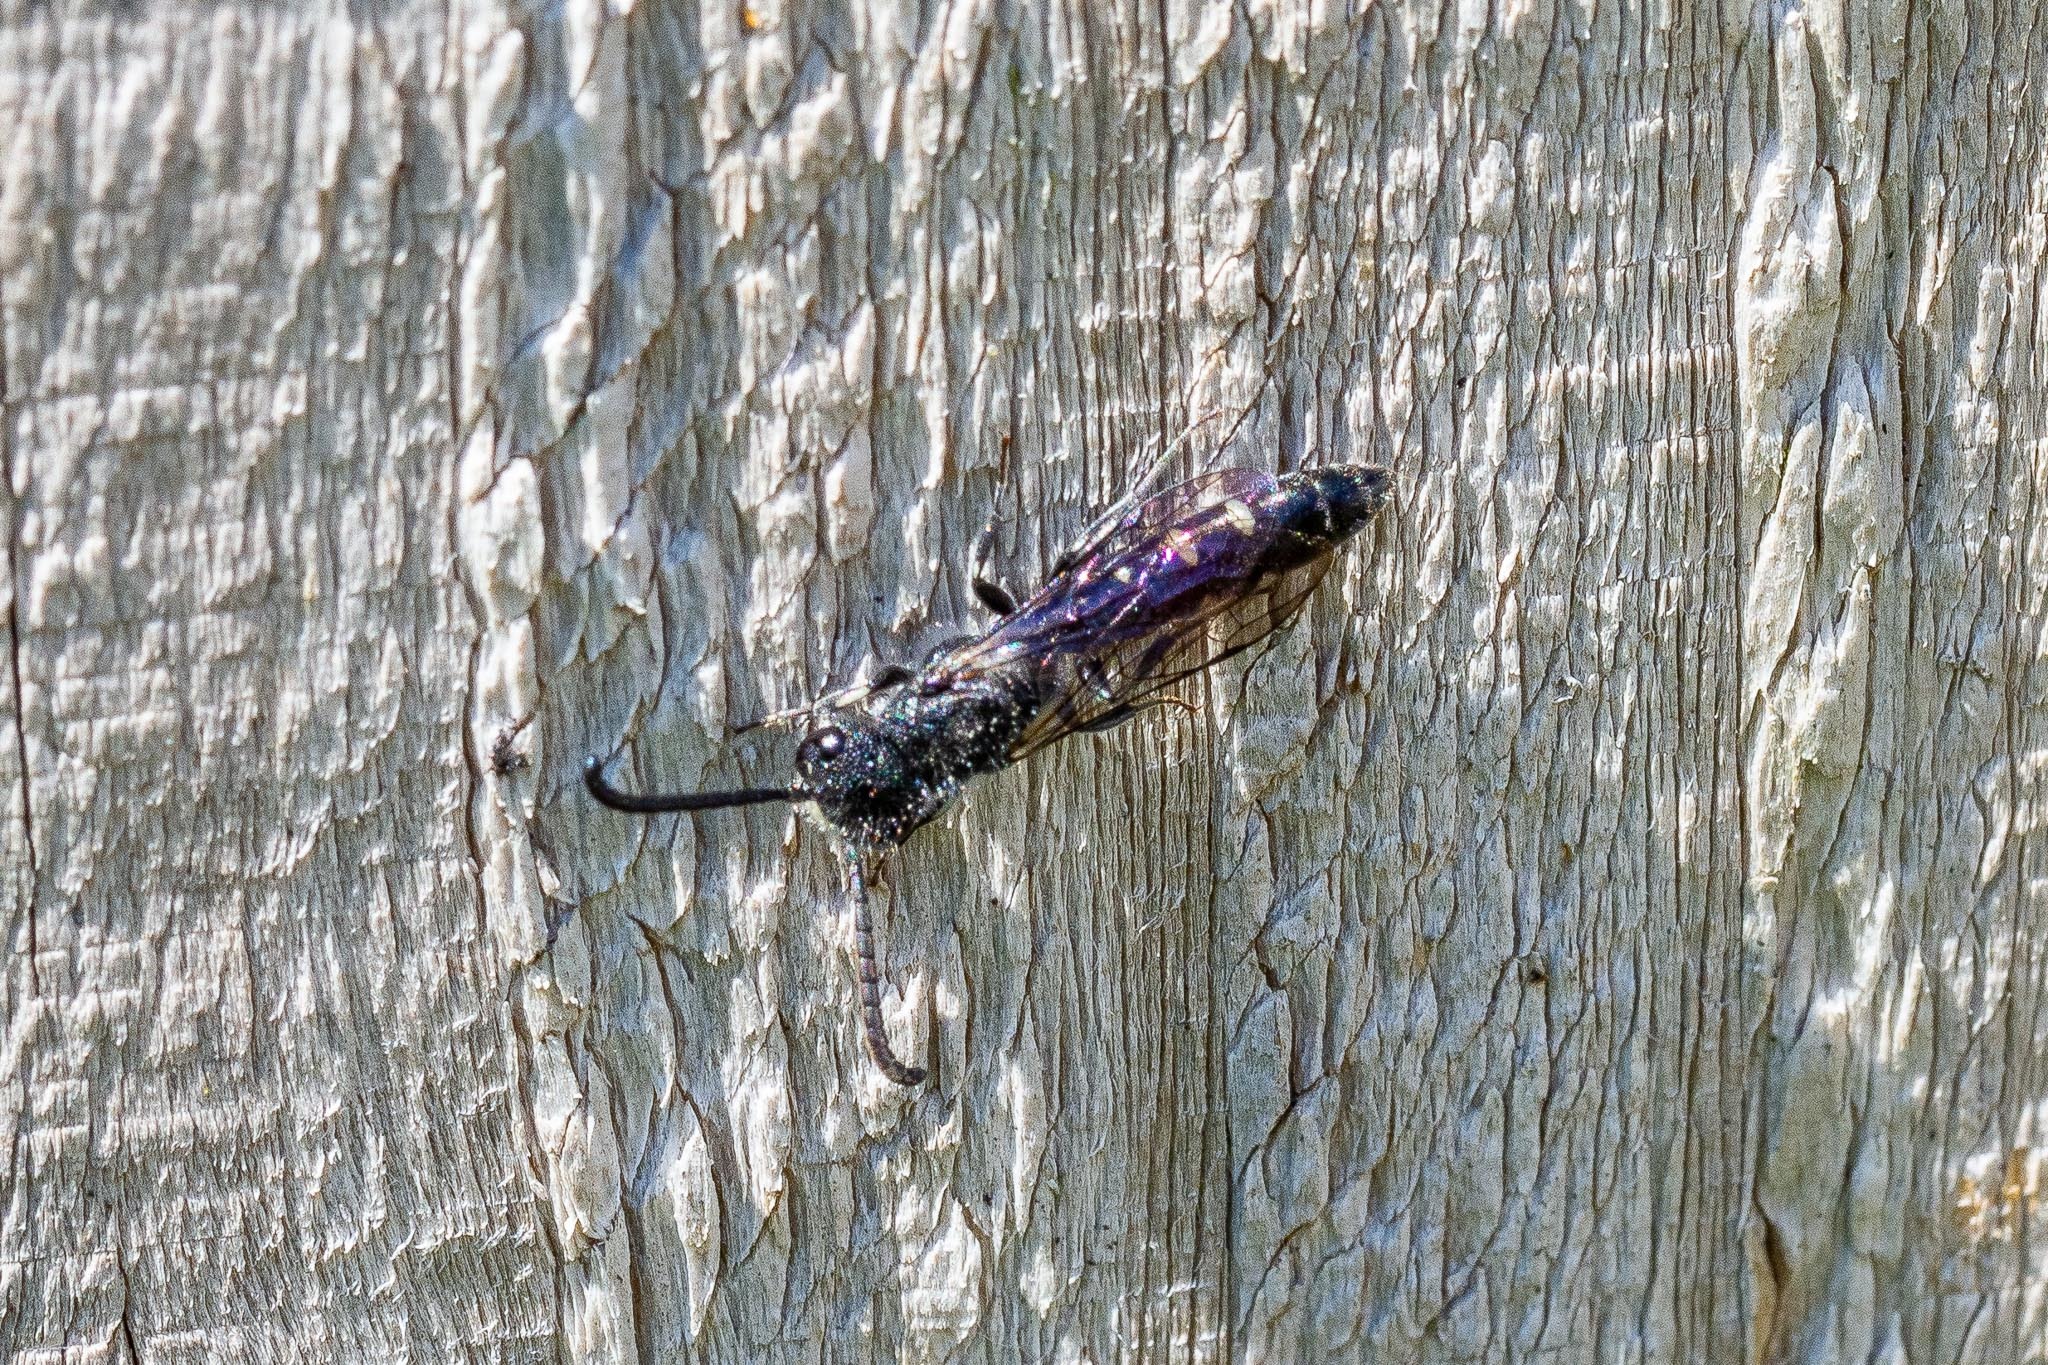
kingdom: Animalia
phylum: Arthropoda
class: Insecta
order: Hymenoptera
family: Sapygidae
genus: Sapyga
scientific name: Sapyga quinquepunctata
